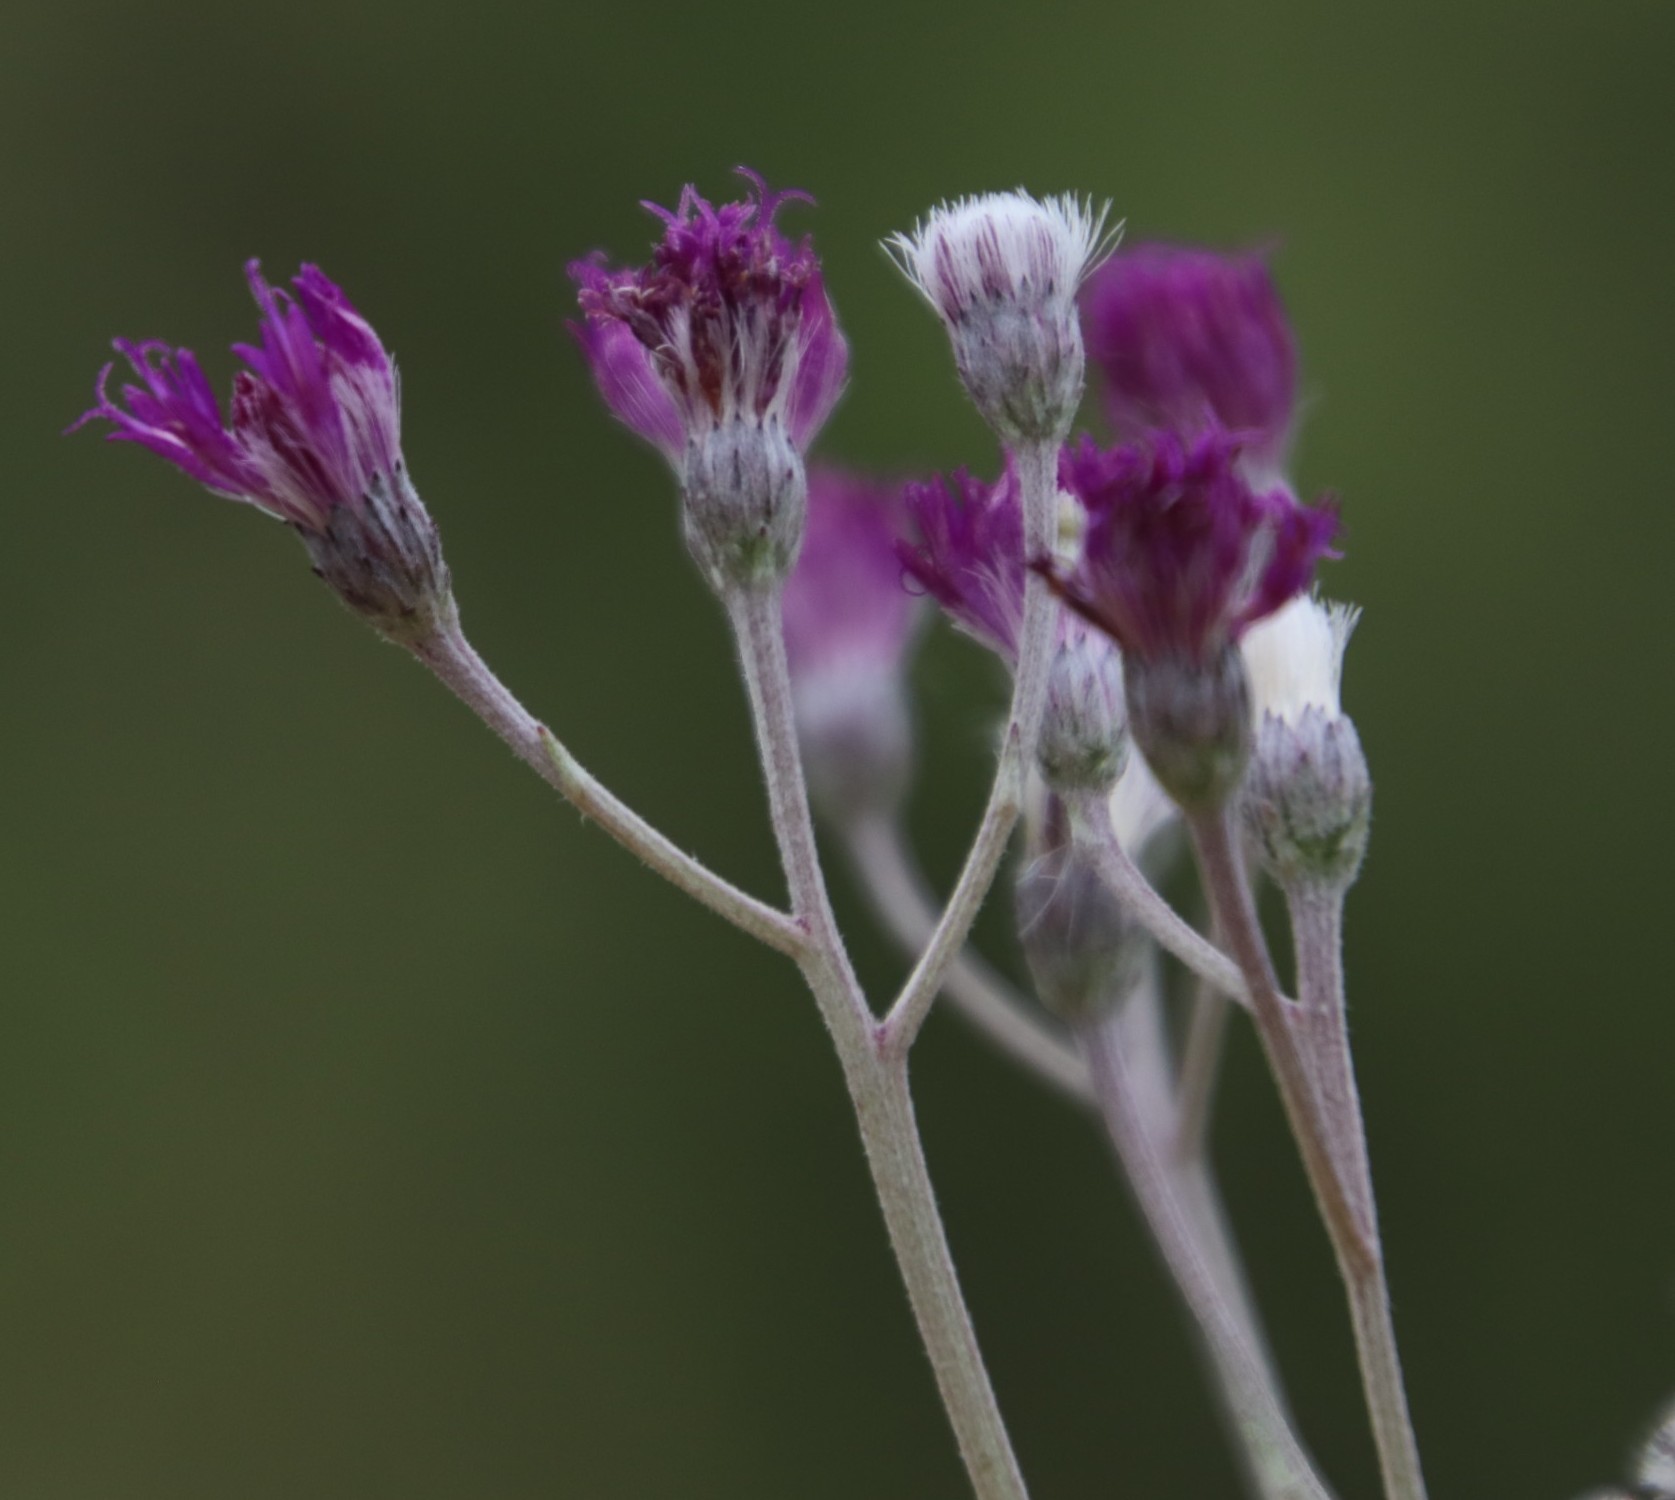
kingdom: Plantae
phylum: Tracheophyta
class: Magnoliopsida
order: Asterales
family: Asteraceae
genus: Hilliardiella
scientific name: Hilliardiella oligocephala
